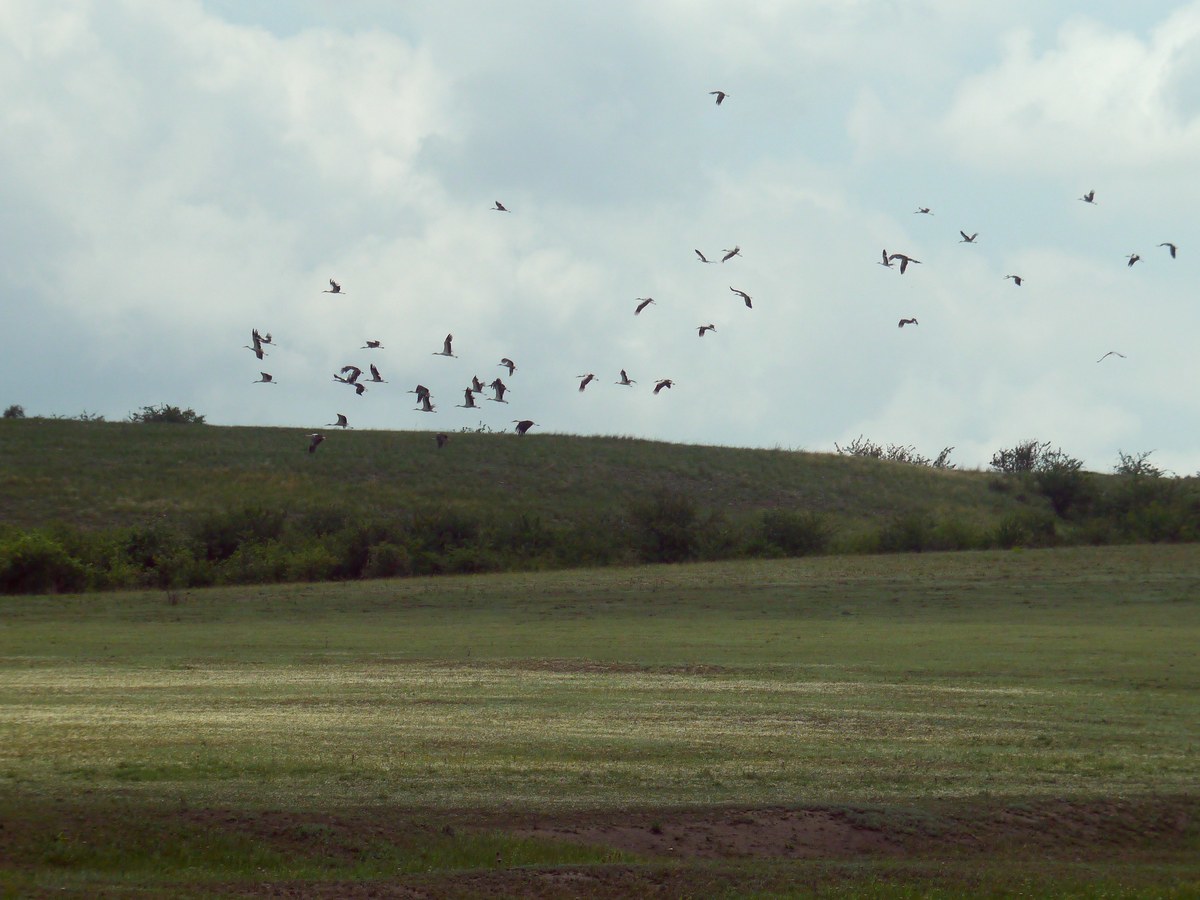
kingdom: Animalia
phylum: Chordata
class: Aves
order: Ciconiiformes
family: Ciconiidae
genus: Ciconia
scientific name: Ciconia ciconia
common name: White stork
